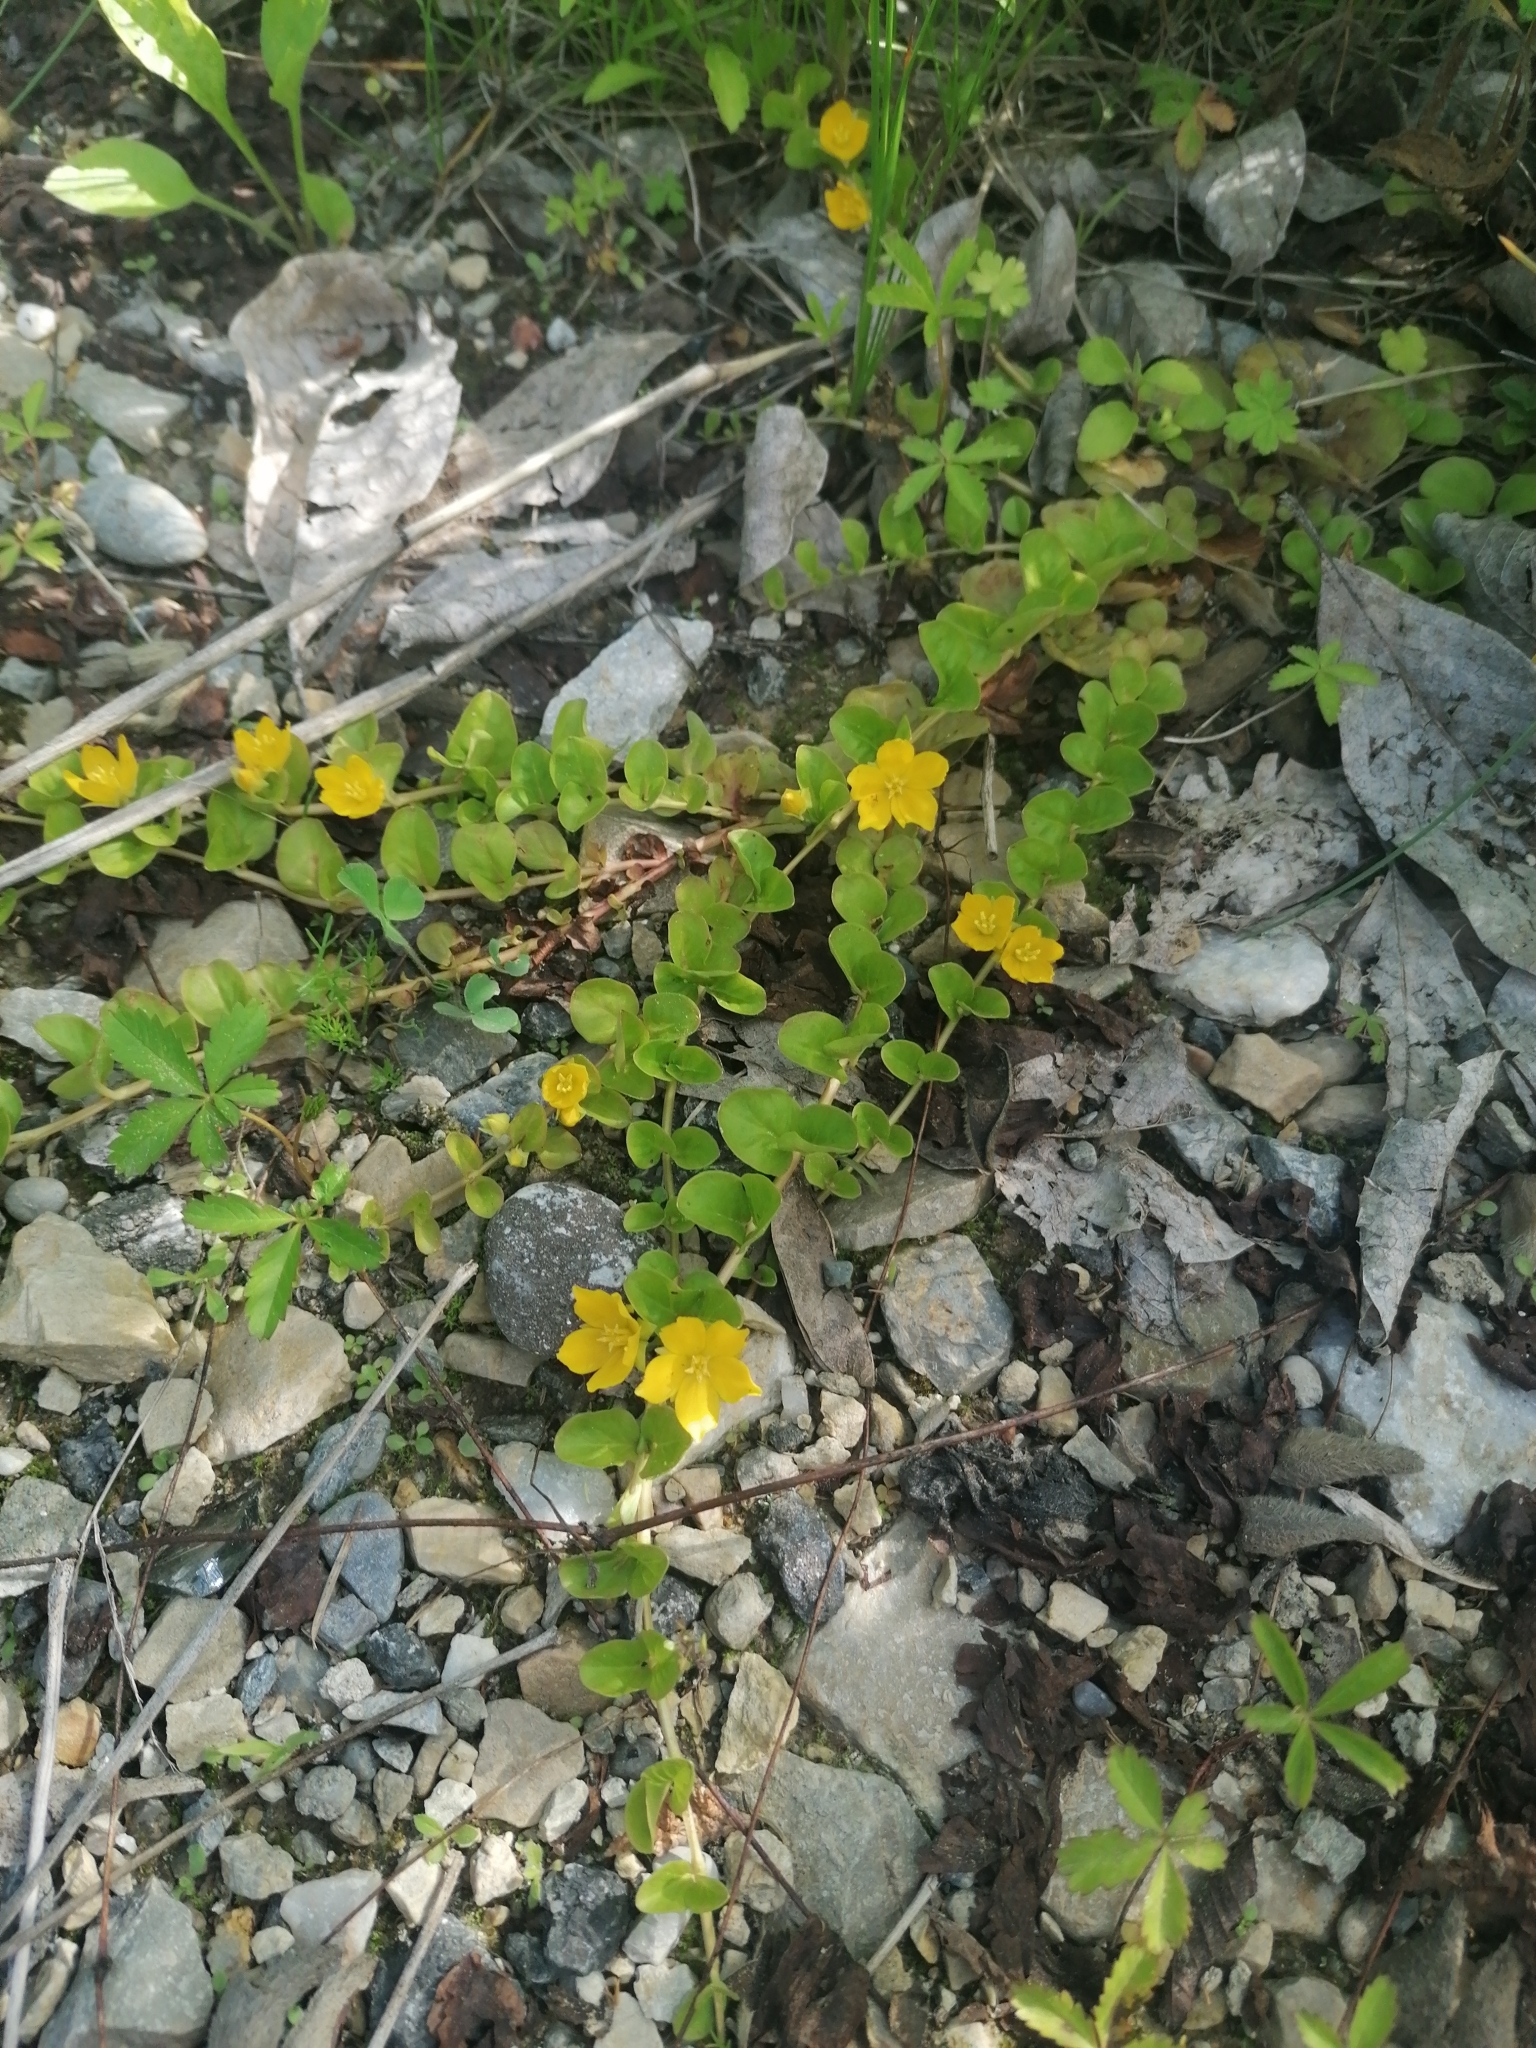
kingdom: Plantae
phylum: Tracheophyta
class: Magnoliopsida
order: Ericales
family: Primulaceae
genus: Lysimachia
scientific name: Lysimachia nummularia
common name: Moneywort
